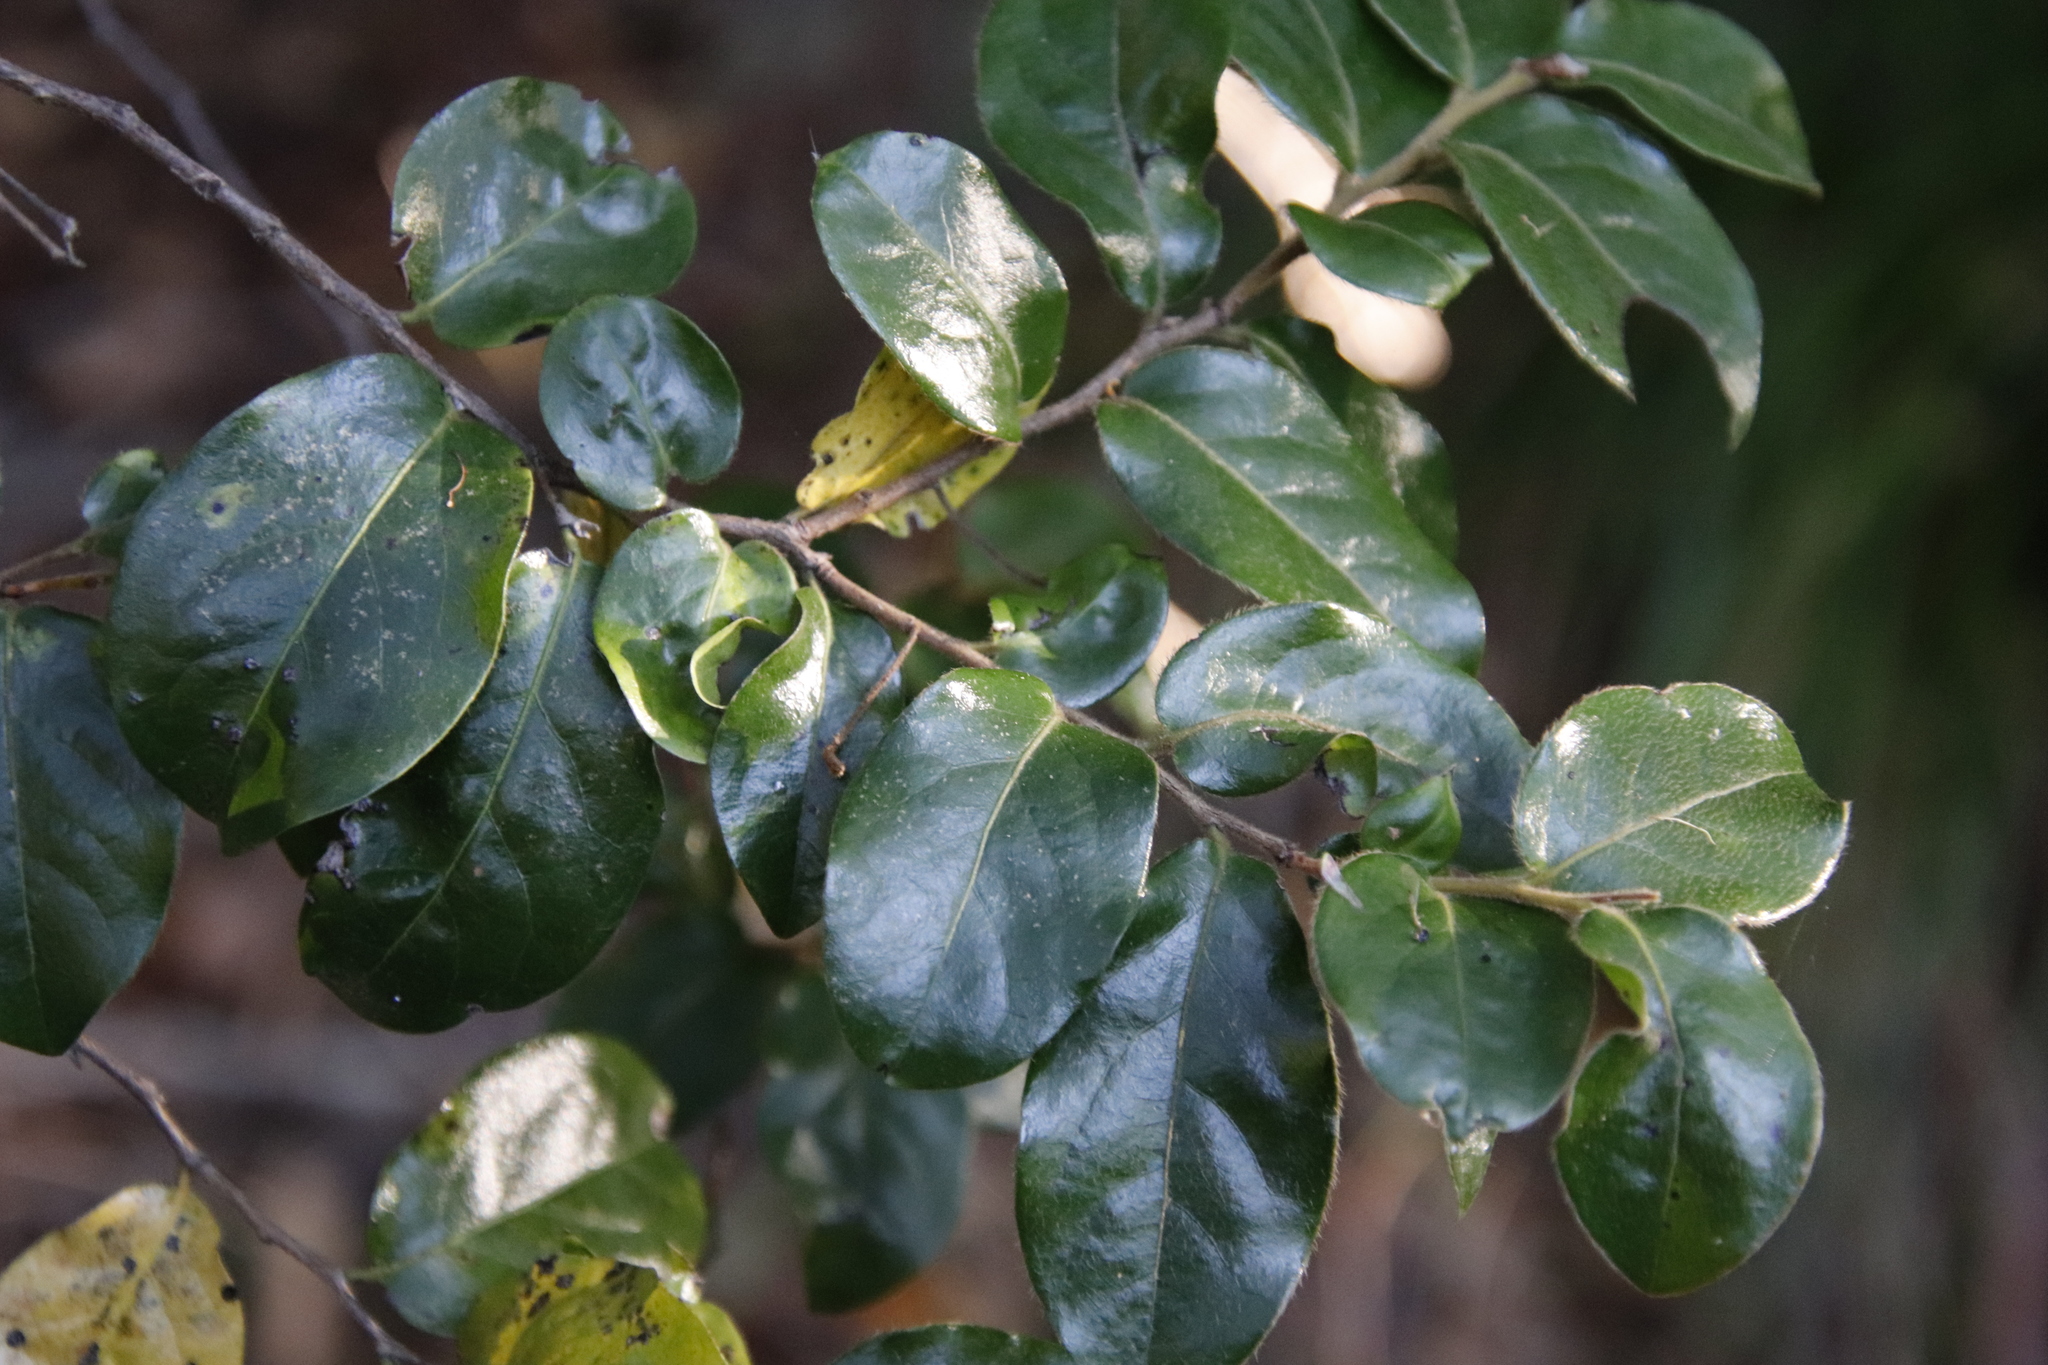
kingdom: Plantae
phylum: Tracheophyta
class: Magnoliopsida
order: Ericales
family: Ebenaceae
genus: Diospyros
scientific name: Diospyros whyteana
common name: Bladder-nut
